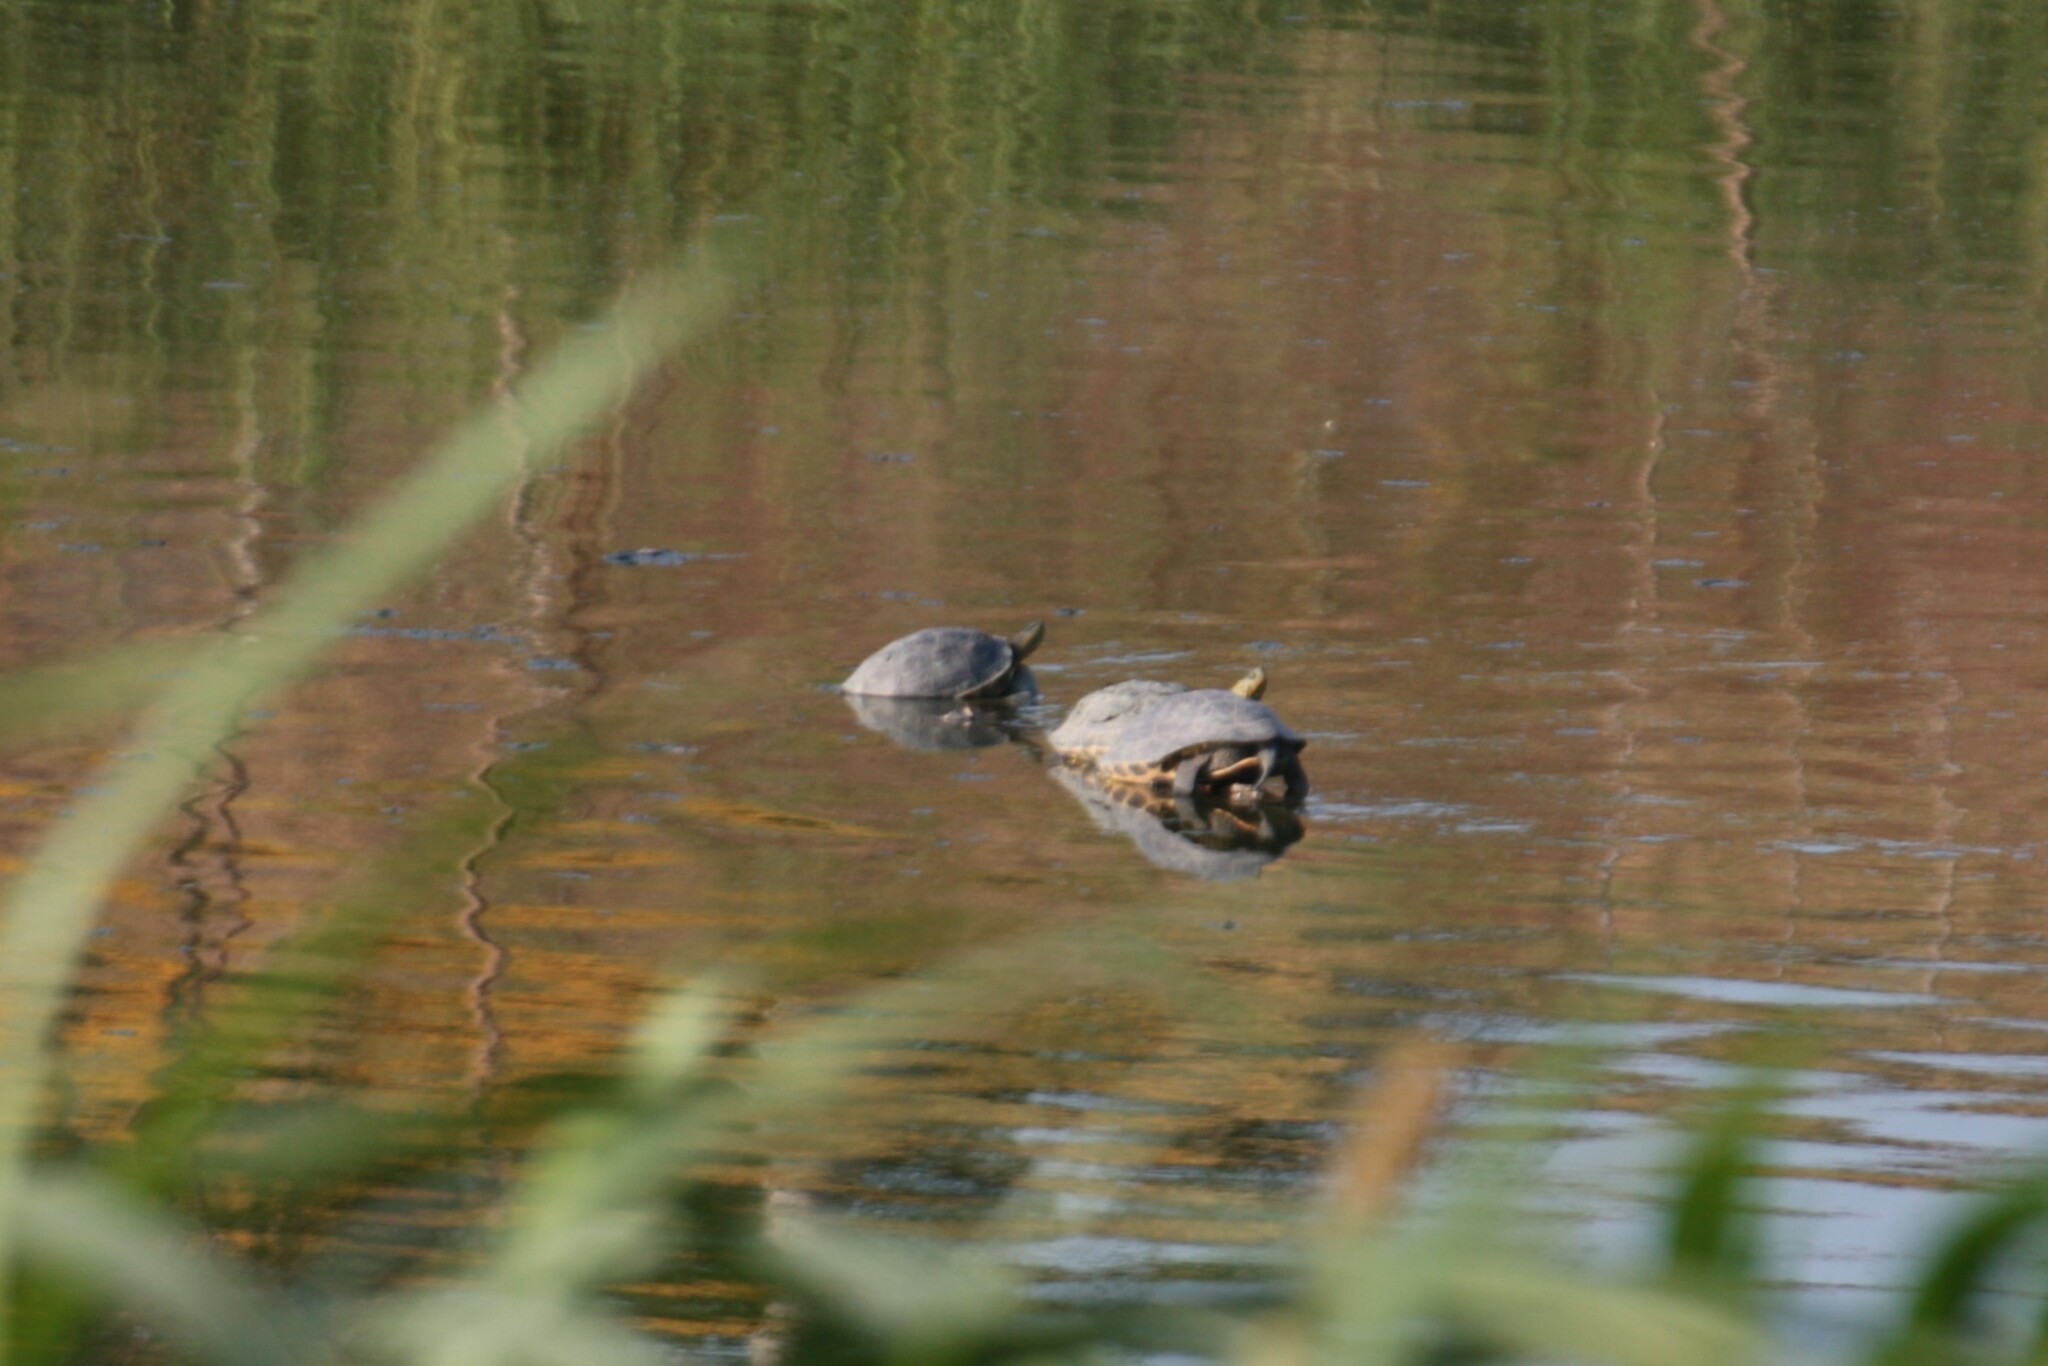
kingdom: Animalia
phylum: Chordata
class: Testudines
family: Geoemydidae
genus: Mauremys
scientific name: Mauremys sinensis
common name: Chinese stripe-necked turtle
